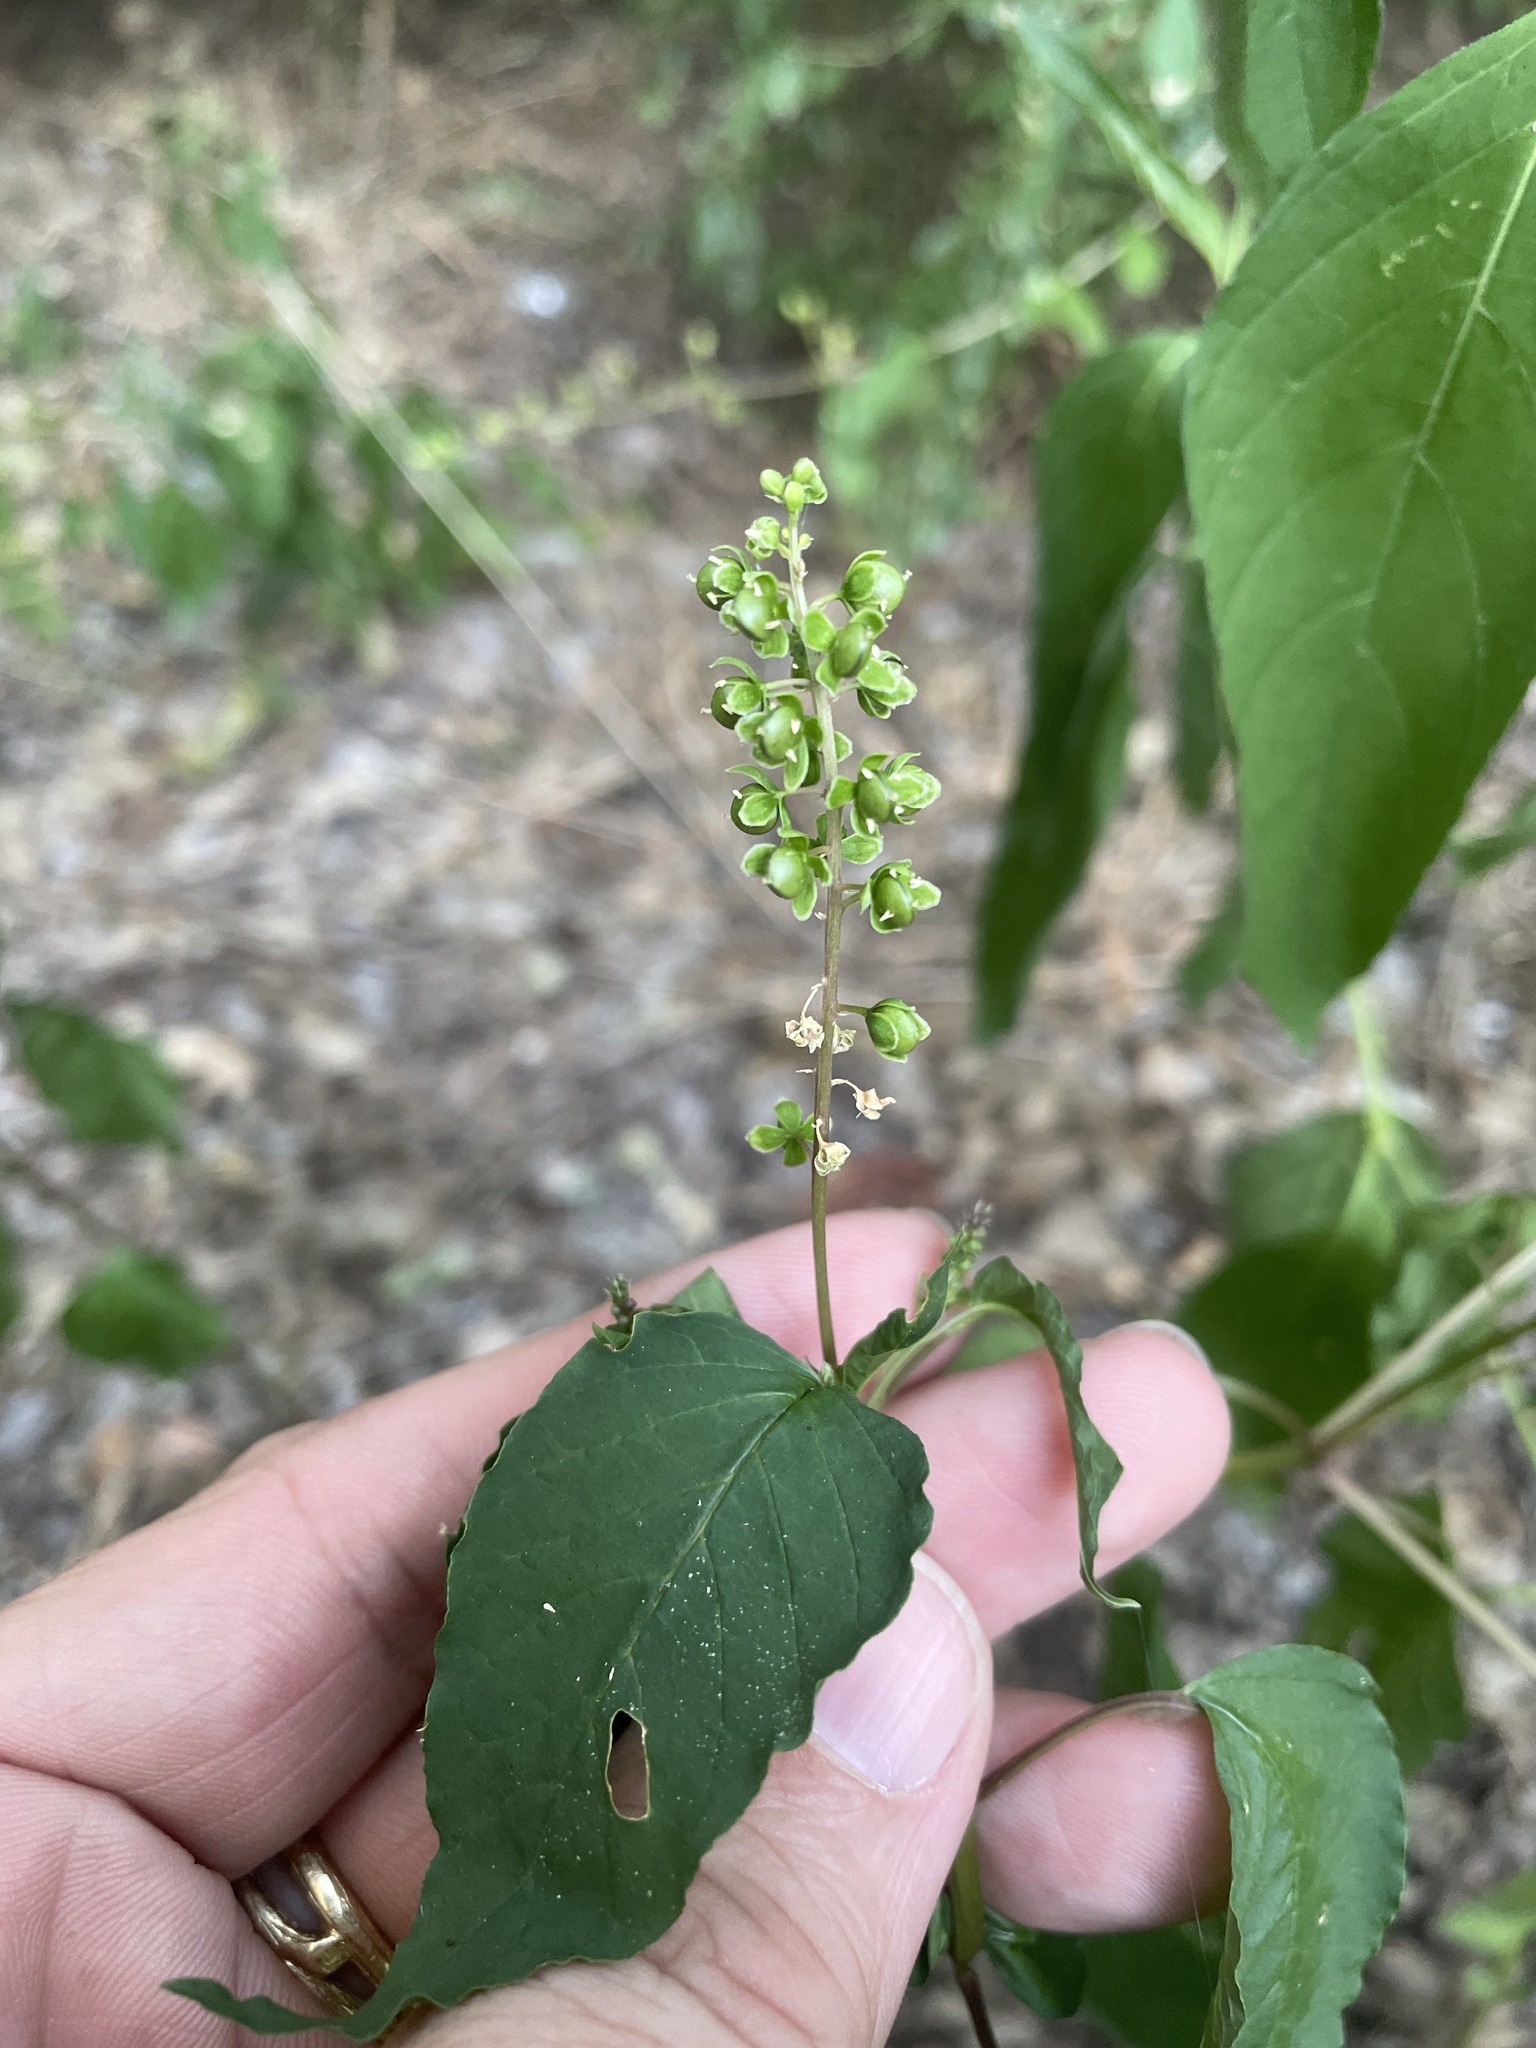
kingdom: Plantae
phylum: Tracheophyta
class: Magnoliopsida
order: Caryophyllales
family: Phytolaccaceae
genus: Rivina
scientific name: Rivina humilis
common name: Rougeplant
